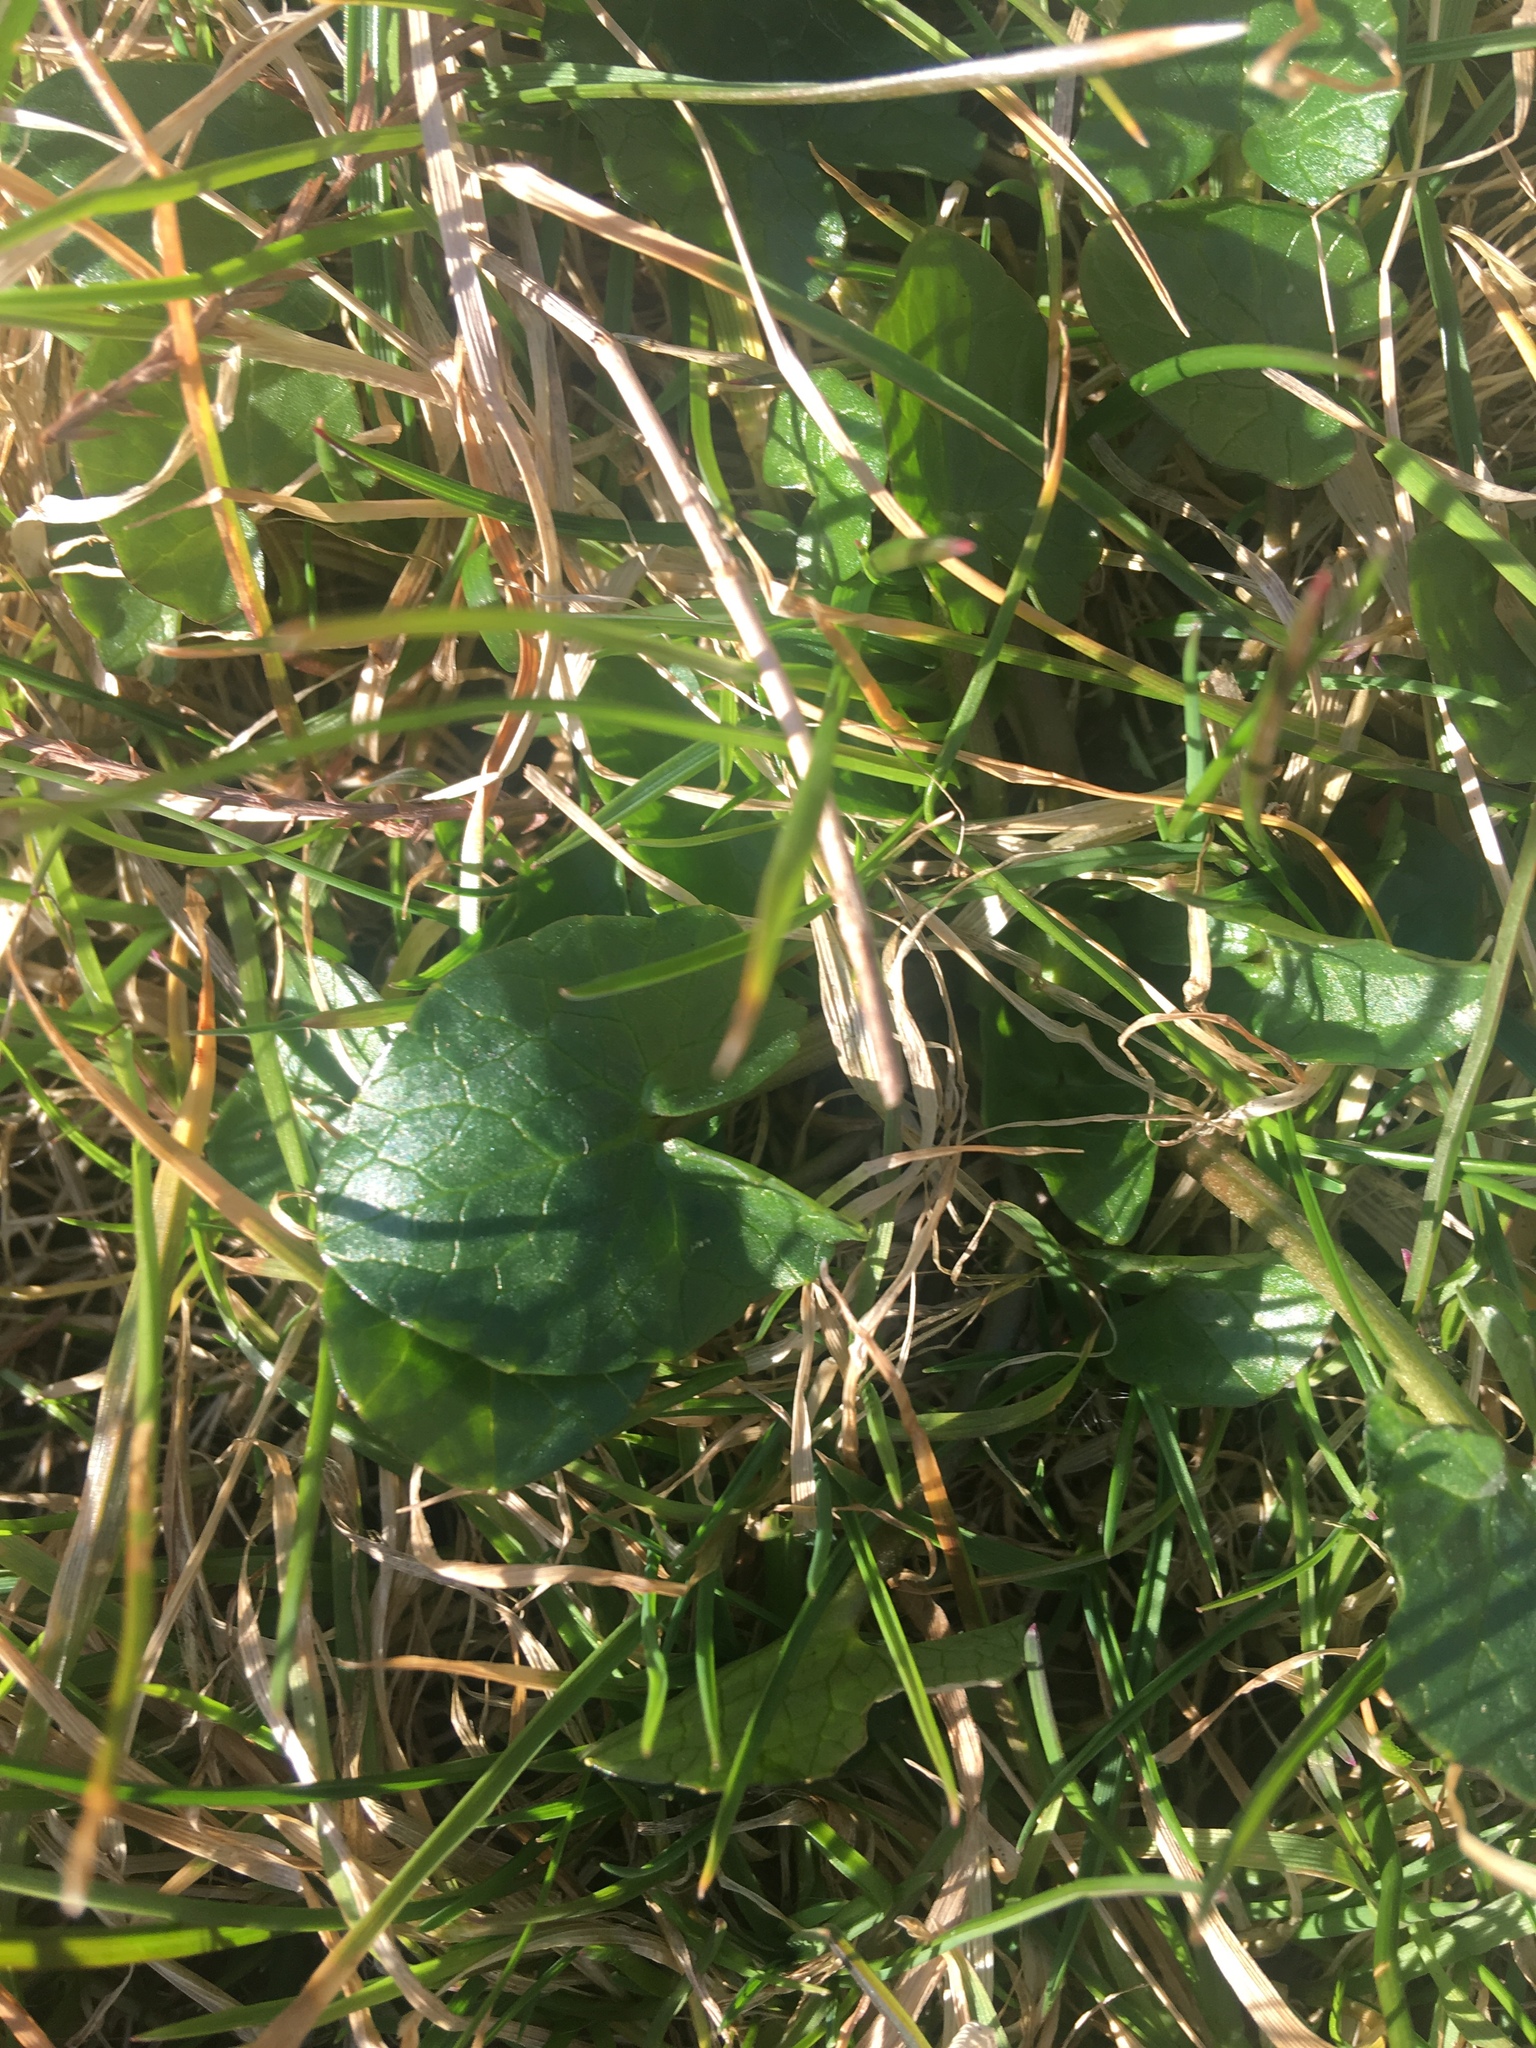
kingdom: Plantae
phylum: Tracheophyta
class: Magnoliopsida
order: Ranunculales
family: Ranunculaceae
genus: Ficaria
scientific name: Ficaria verna
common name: Lesser celandine
